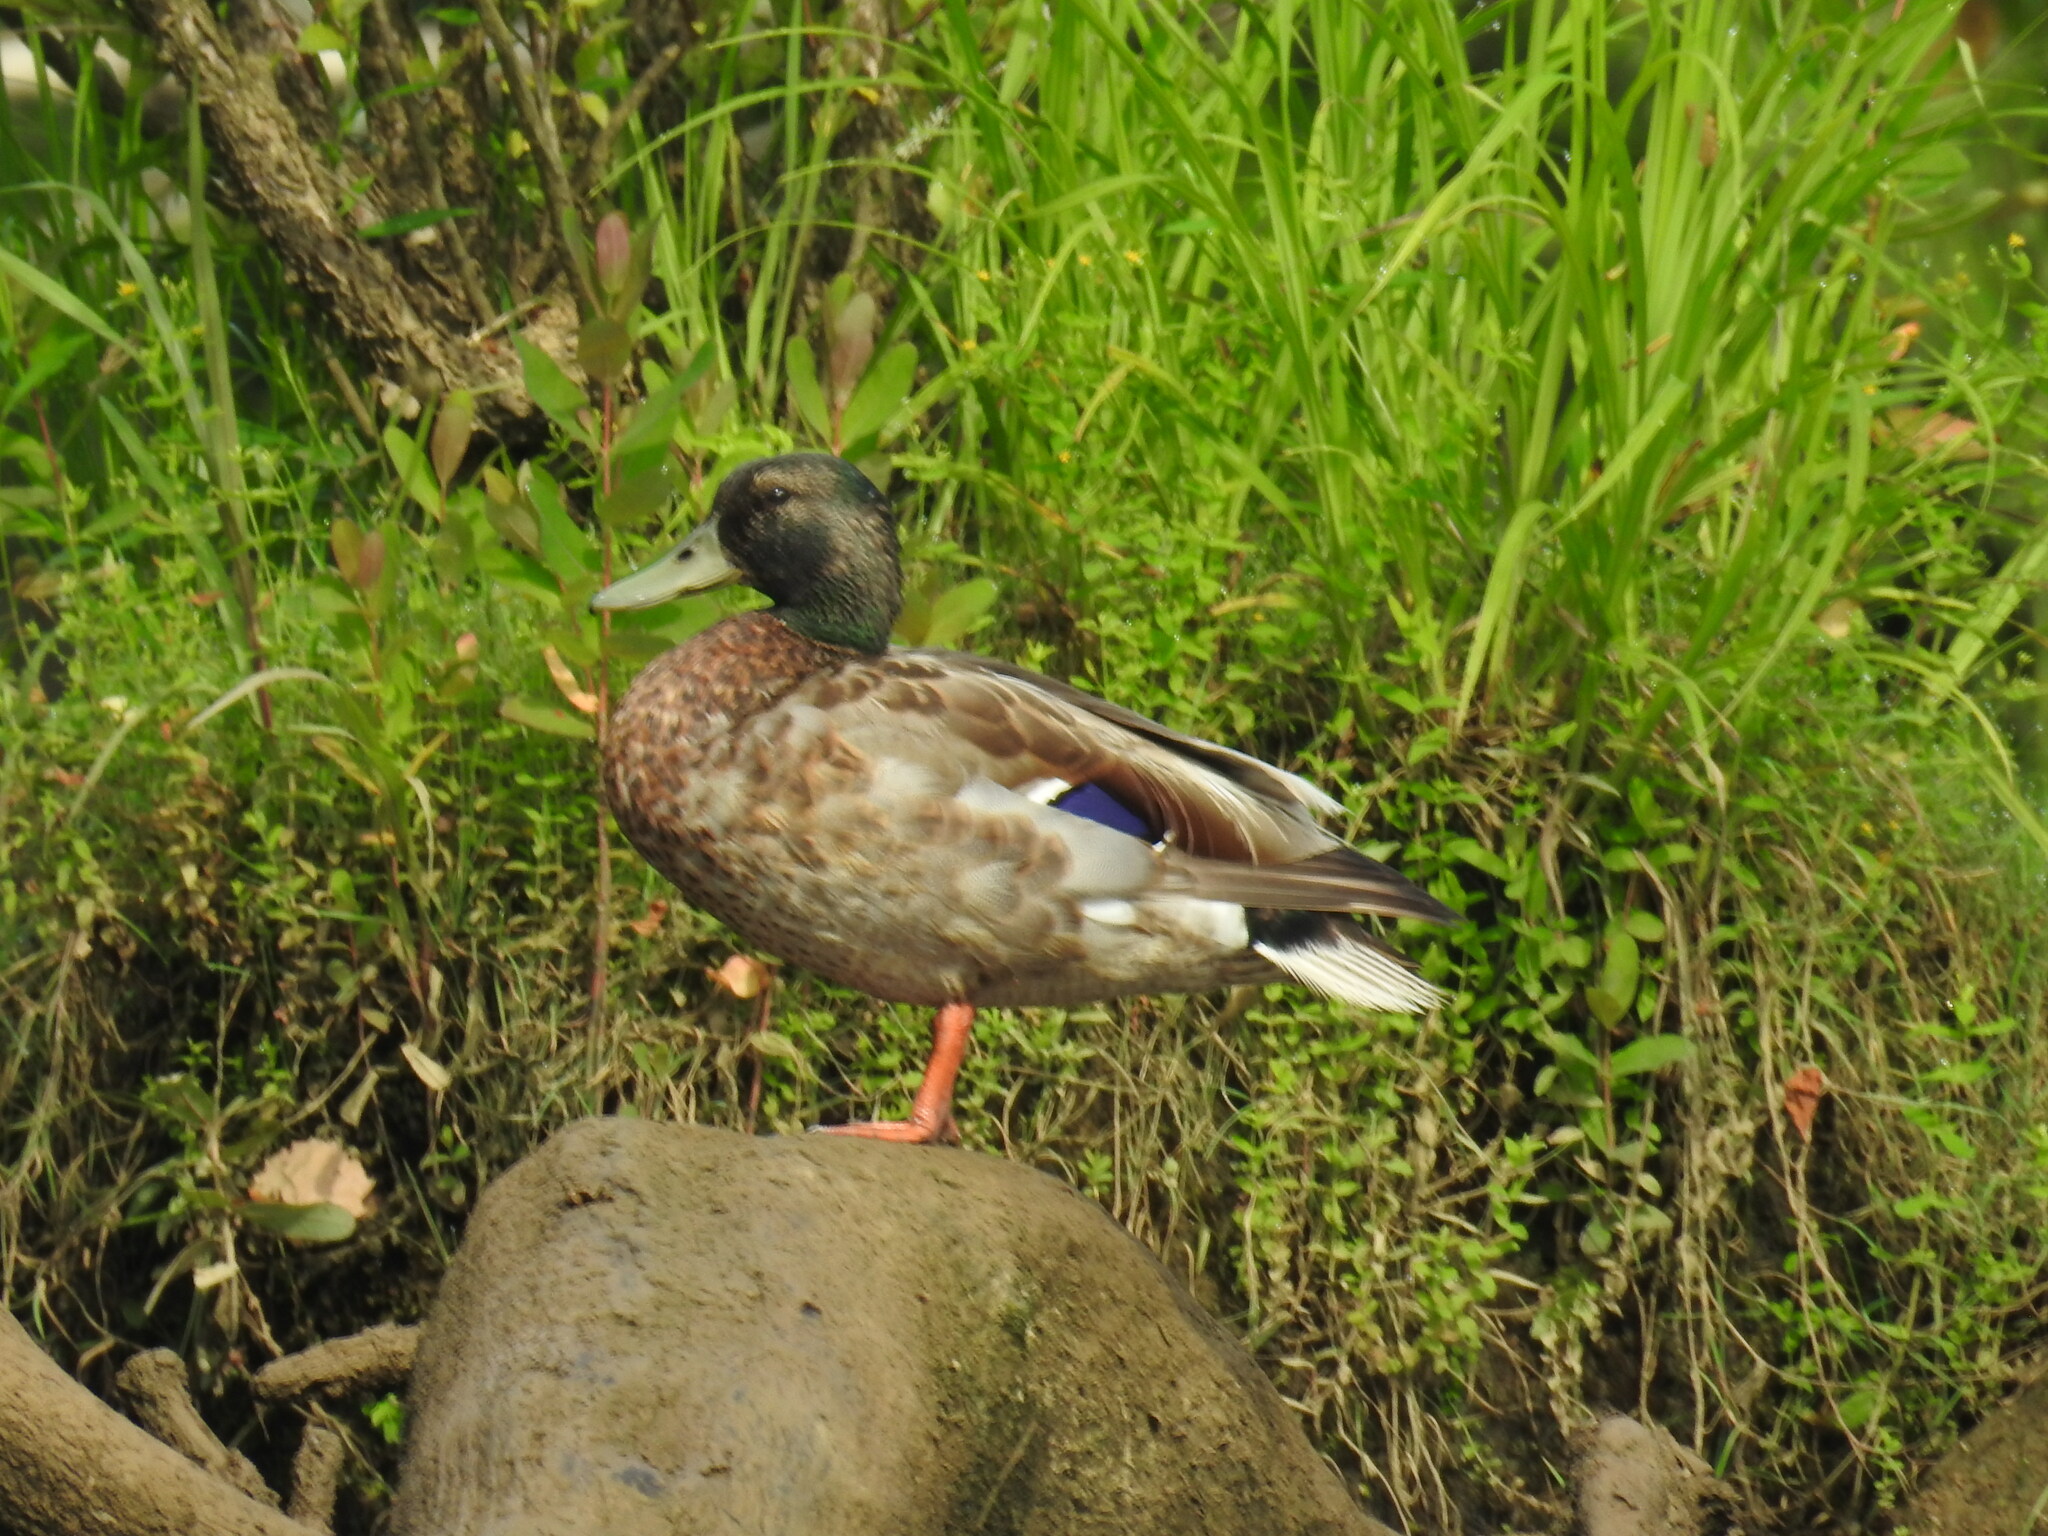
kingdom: Animalia
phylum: Chordata
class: Aves
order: Anseriformes
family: Anatidae
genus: Anas
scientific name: Anas platyrhynchos
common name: Mallard
